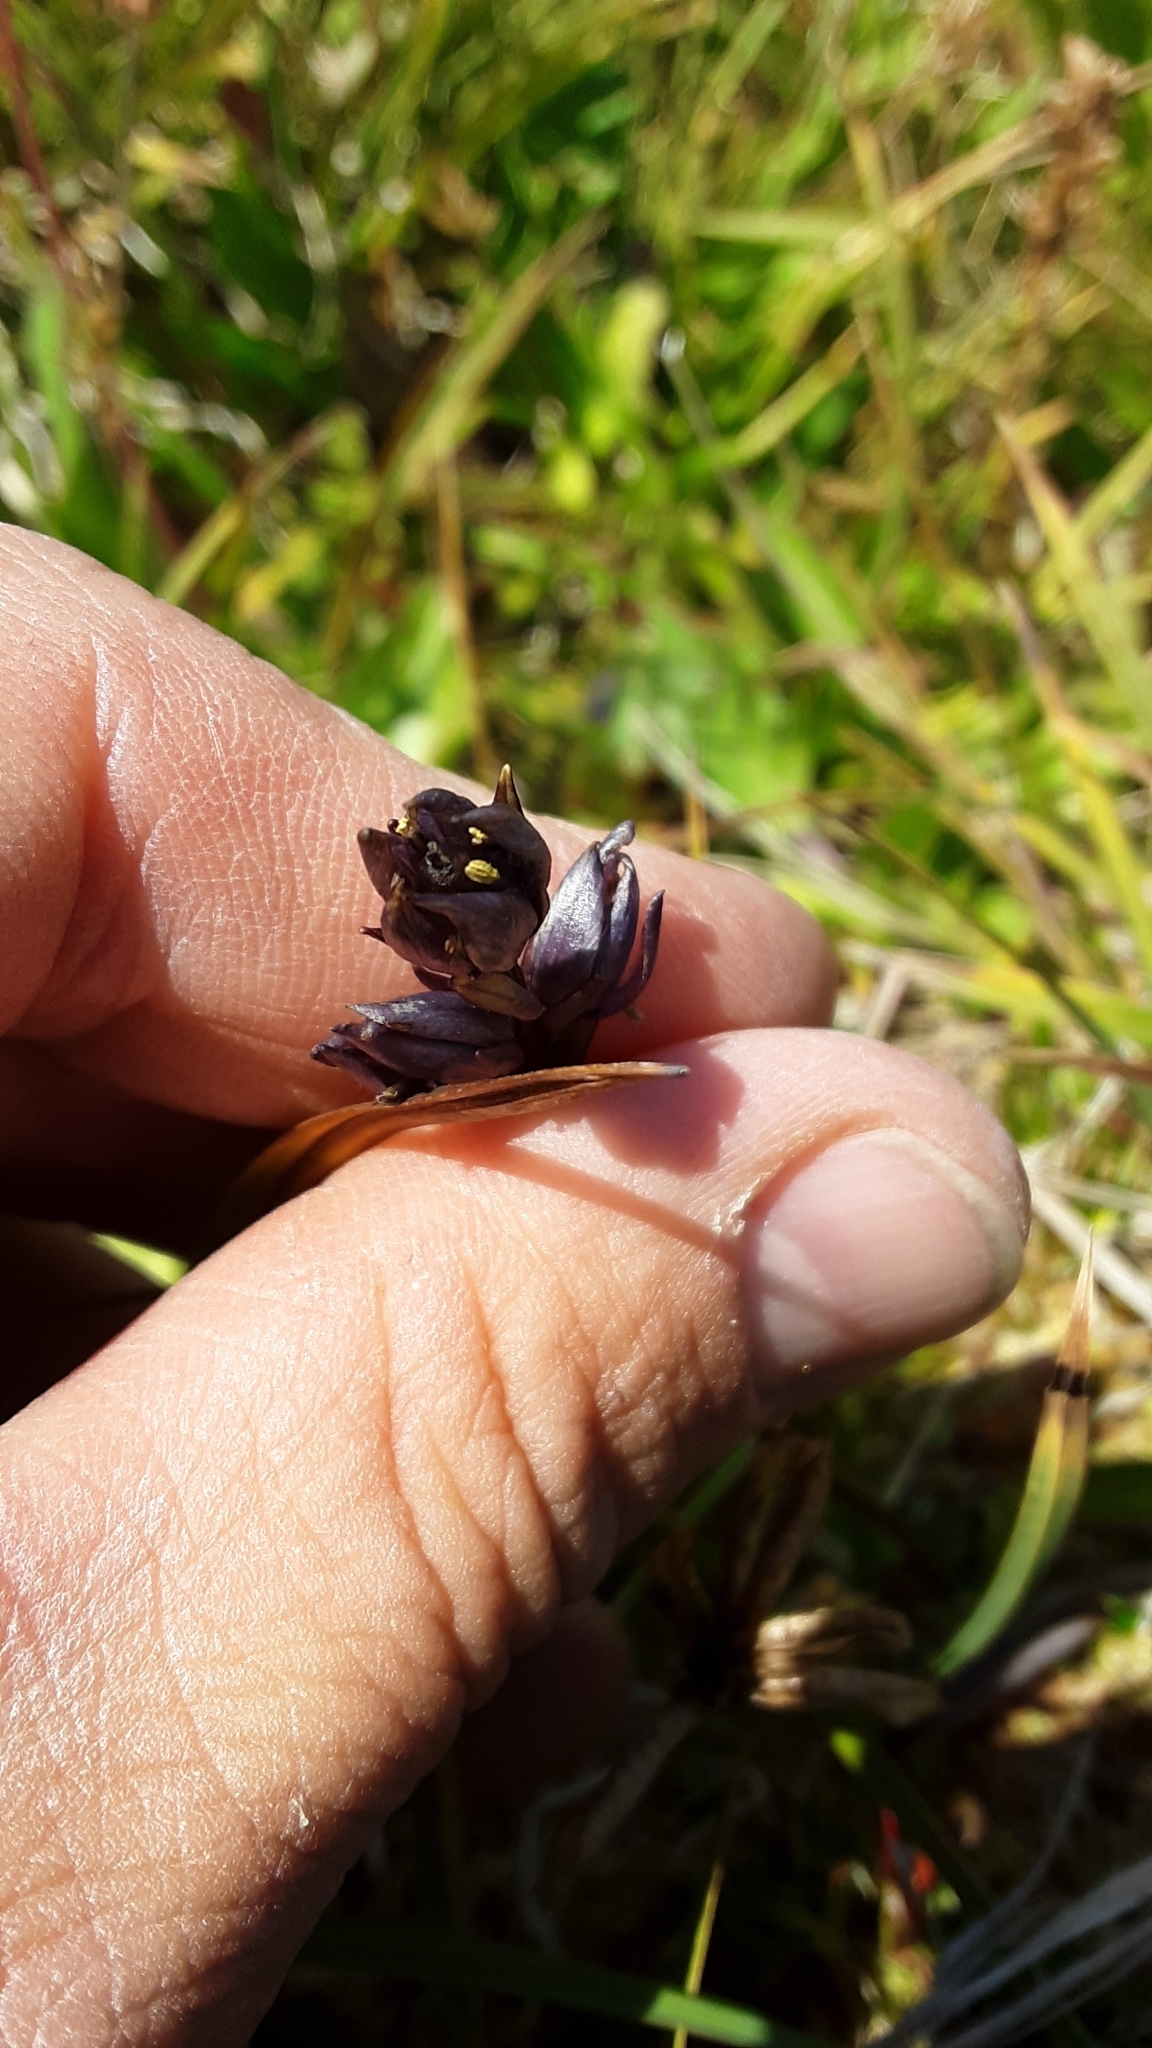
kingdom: Plantae
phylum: Tracheophyta
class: Magnoliopsida
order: Gentianales
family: Gentianaceae
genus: Swertia
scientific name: Swertia perennis
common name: Alpine bog swertia
